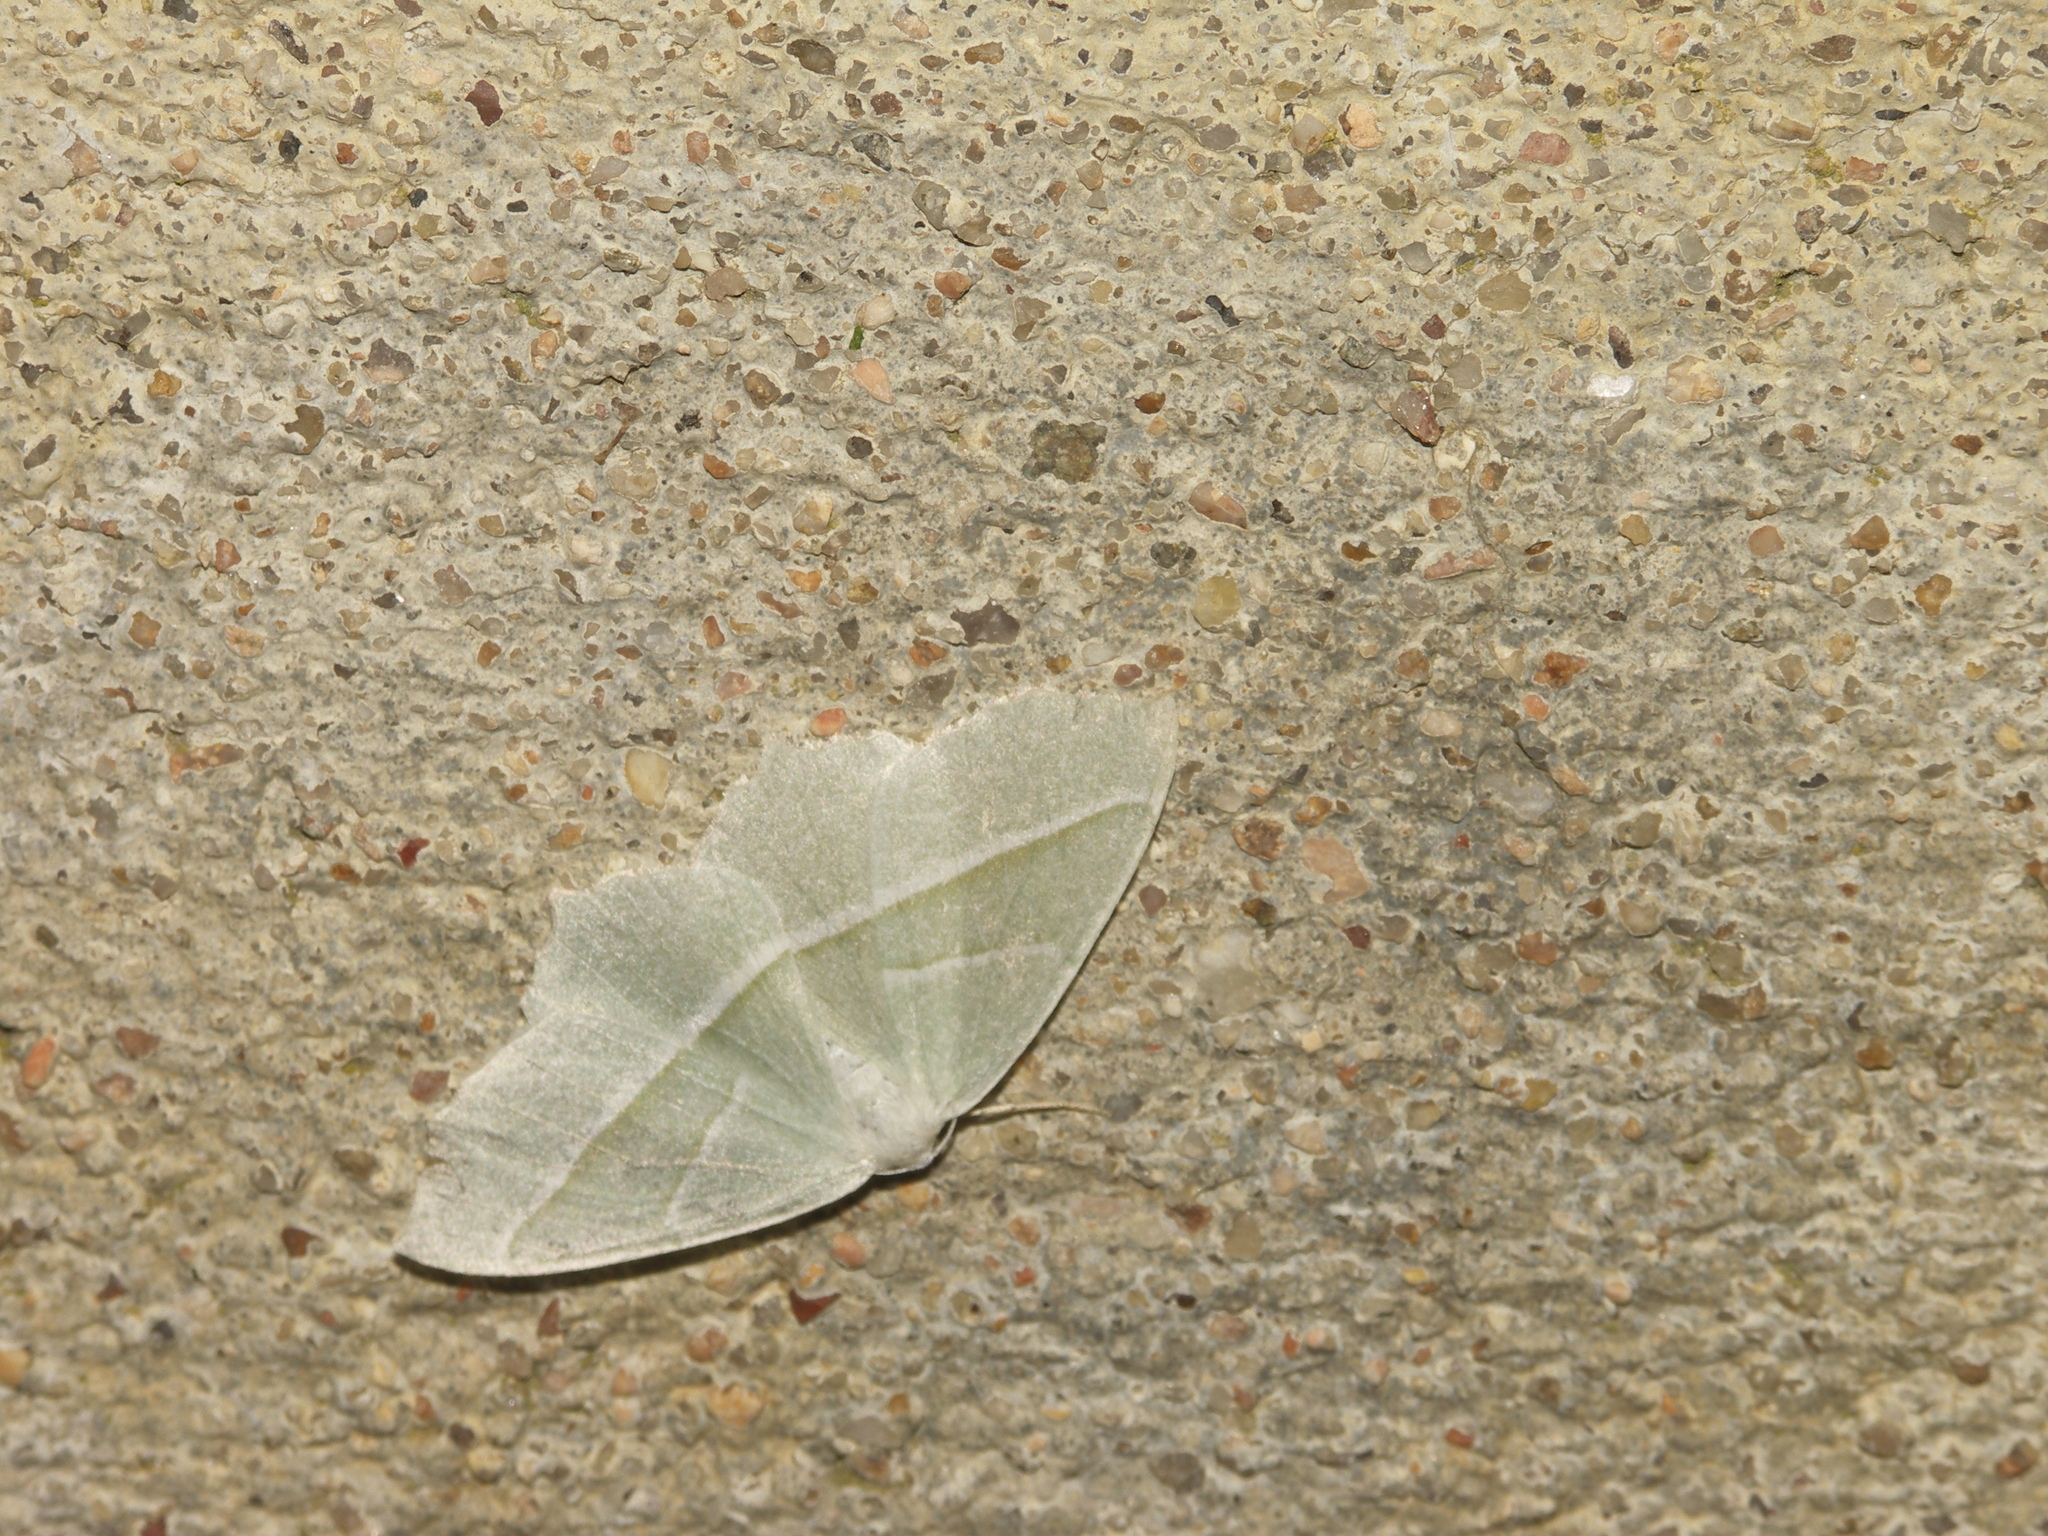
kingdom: Animalia
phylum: Arthropoda
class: Insecta
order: Lepidoptera
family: Geometridae
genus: Campaea
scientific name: Campaea margaritaria
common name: Light emerald
